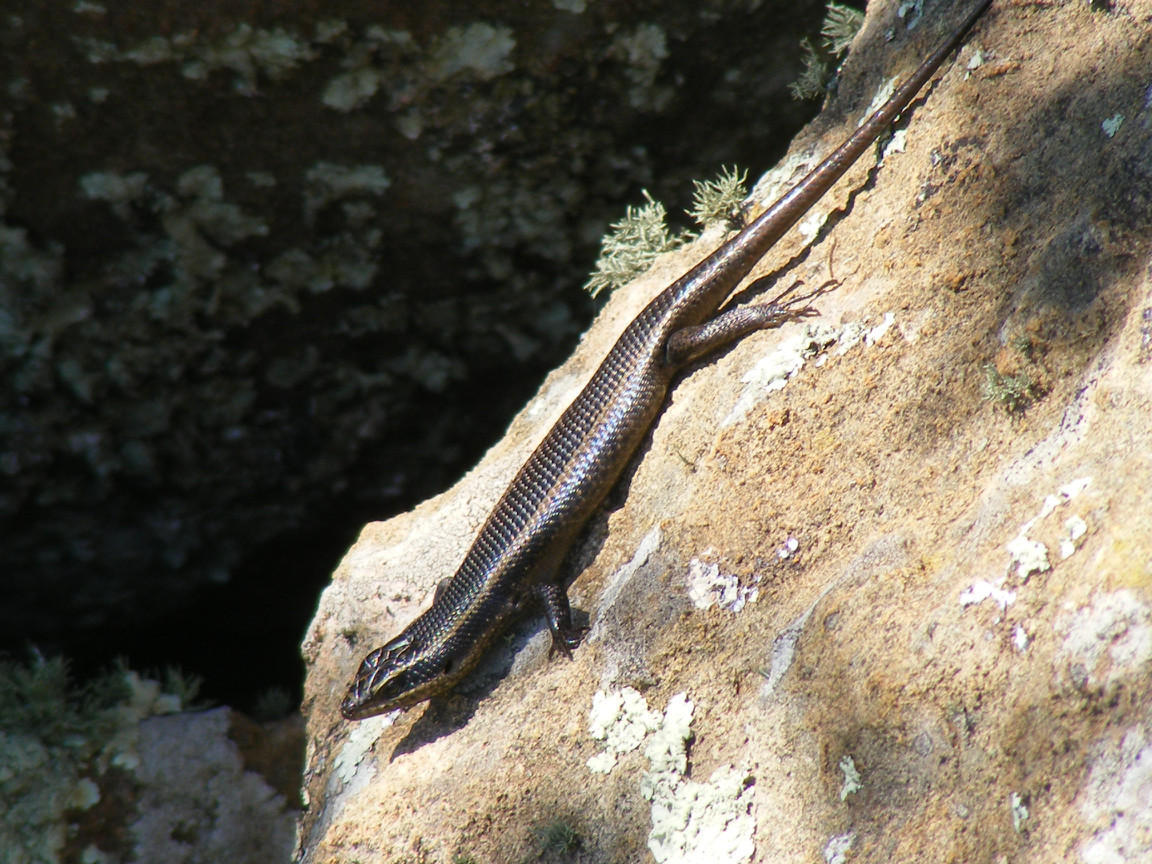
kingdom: Animalia
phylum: Chordata
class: Squamata
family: Scincidae
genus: Trachylepis
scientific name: Trachylepis punctatissima
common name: Montane speckled skink
